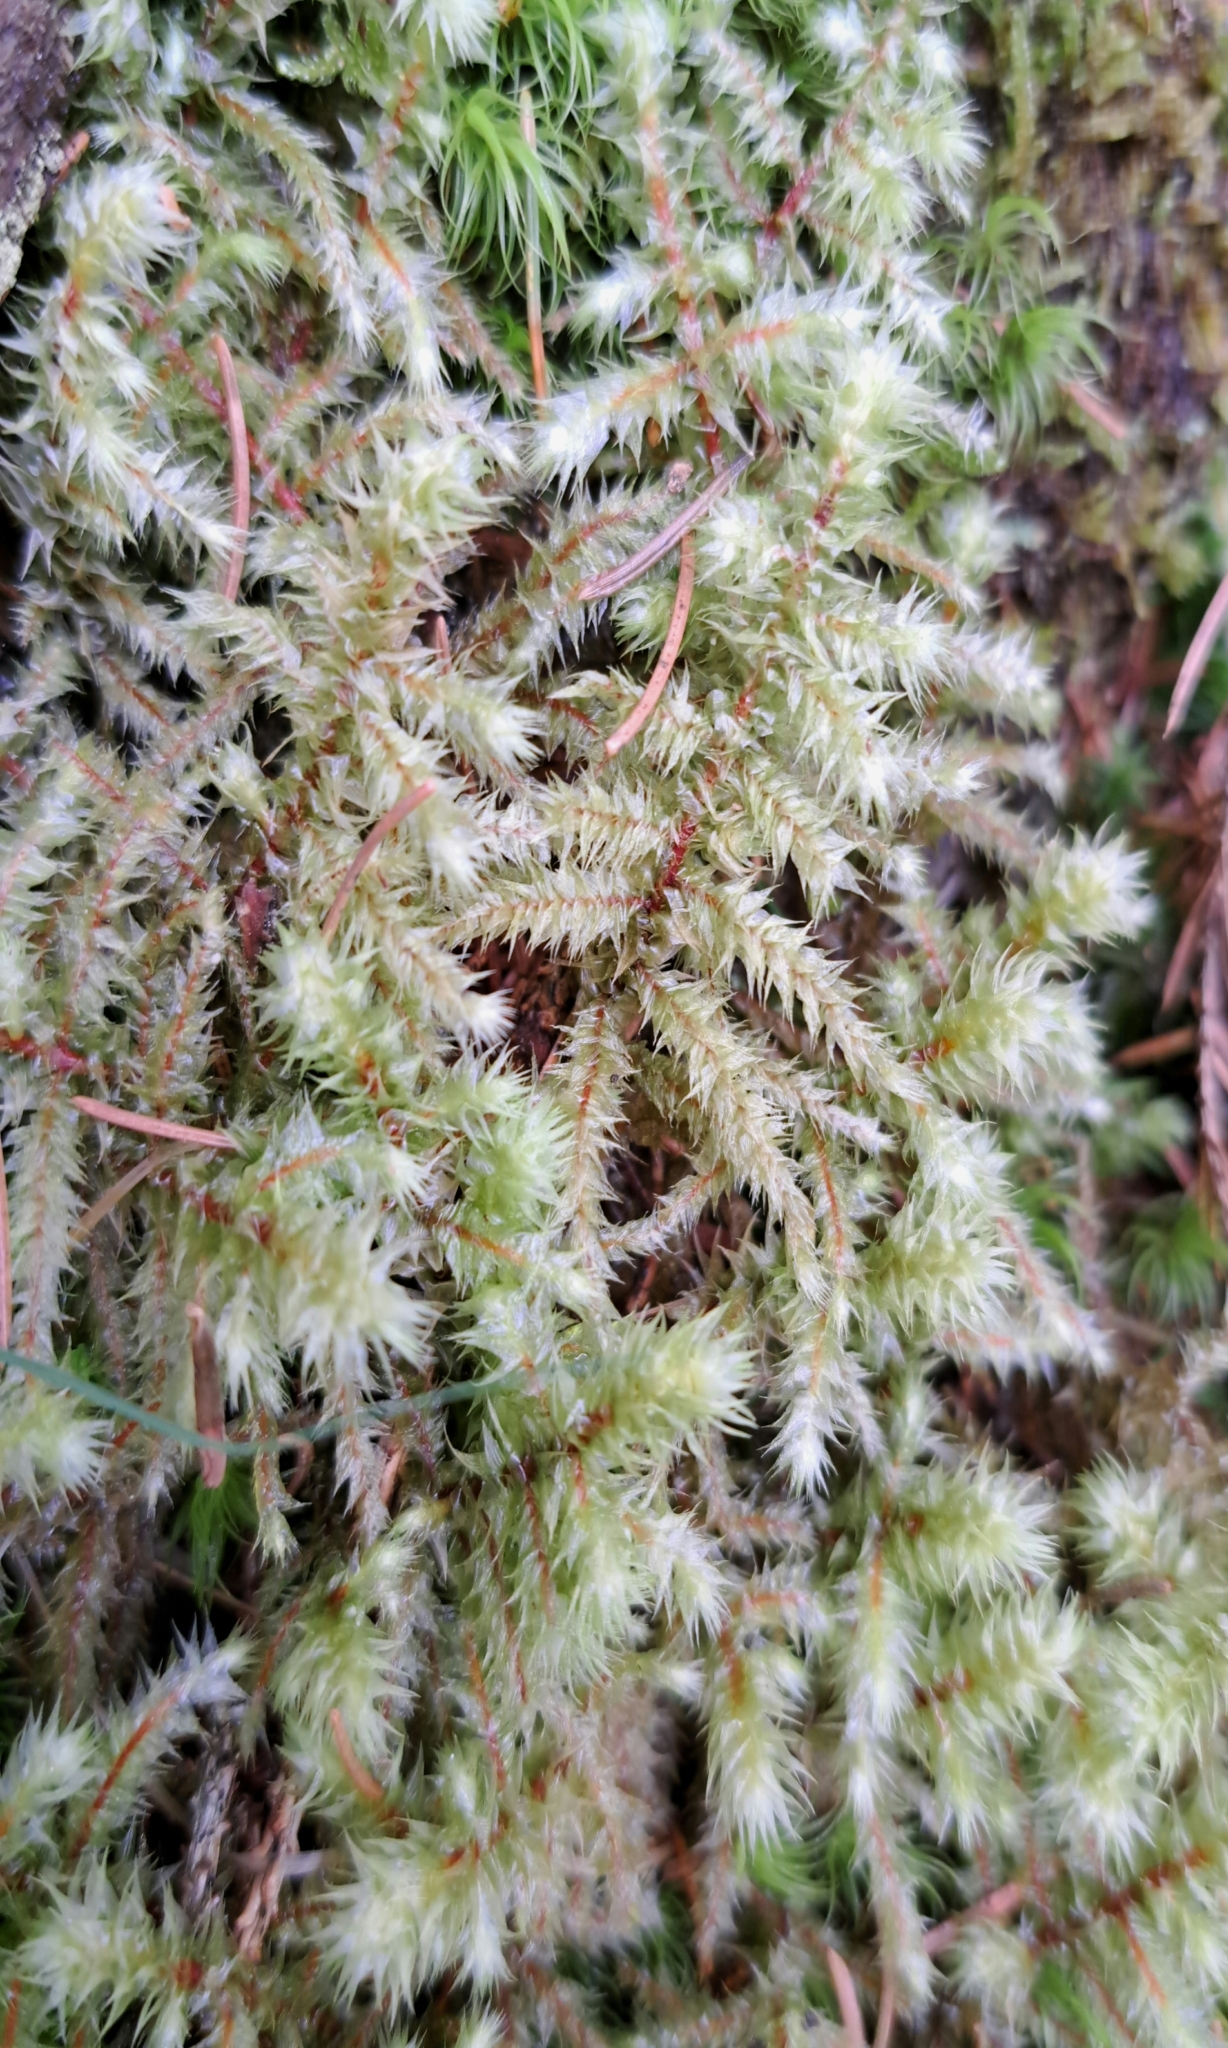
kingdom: Plantae
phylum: Bryophyta
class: Bryopsida
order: Hypnales
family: Hylocomiaceae
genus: Hylocomiadelphus
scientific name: Hylocomiadelphus triquetrus
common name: Rough goose neck moss
